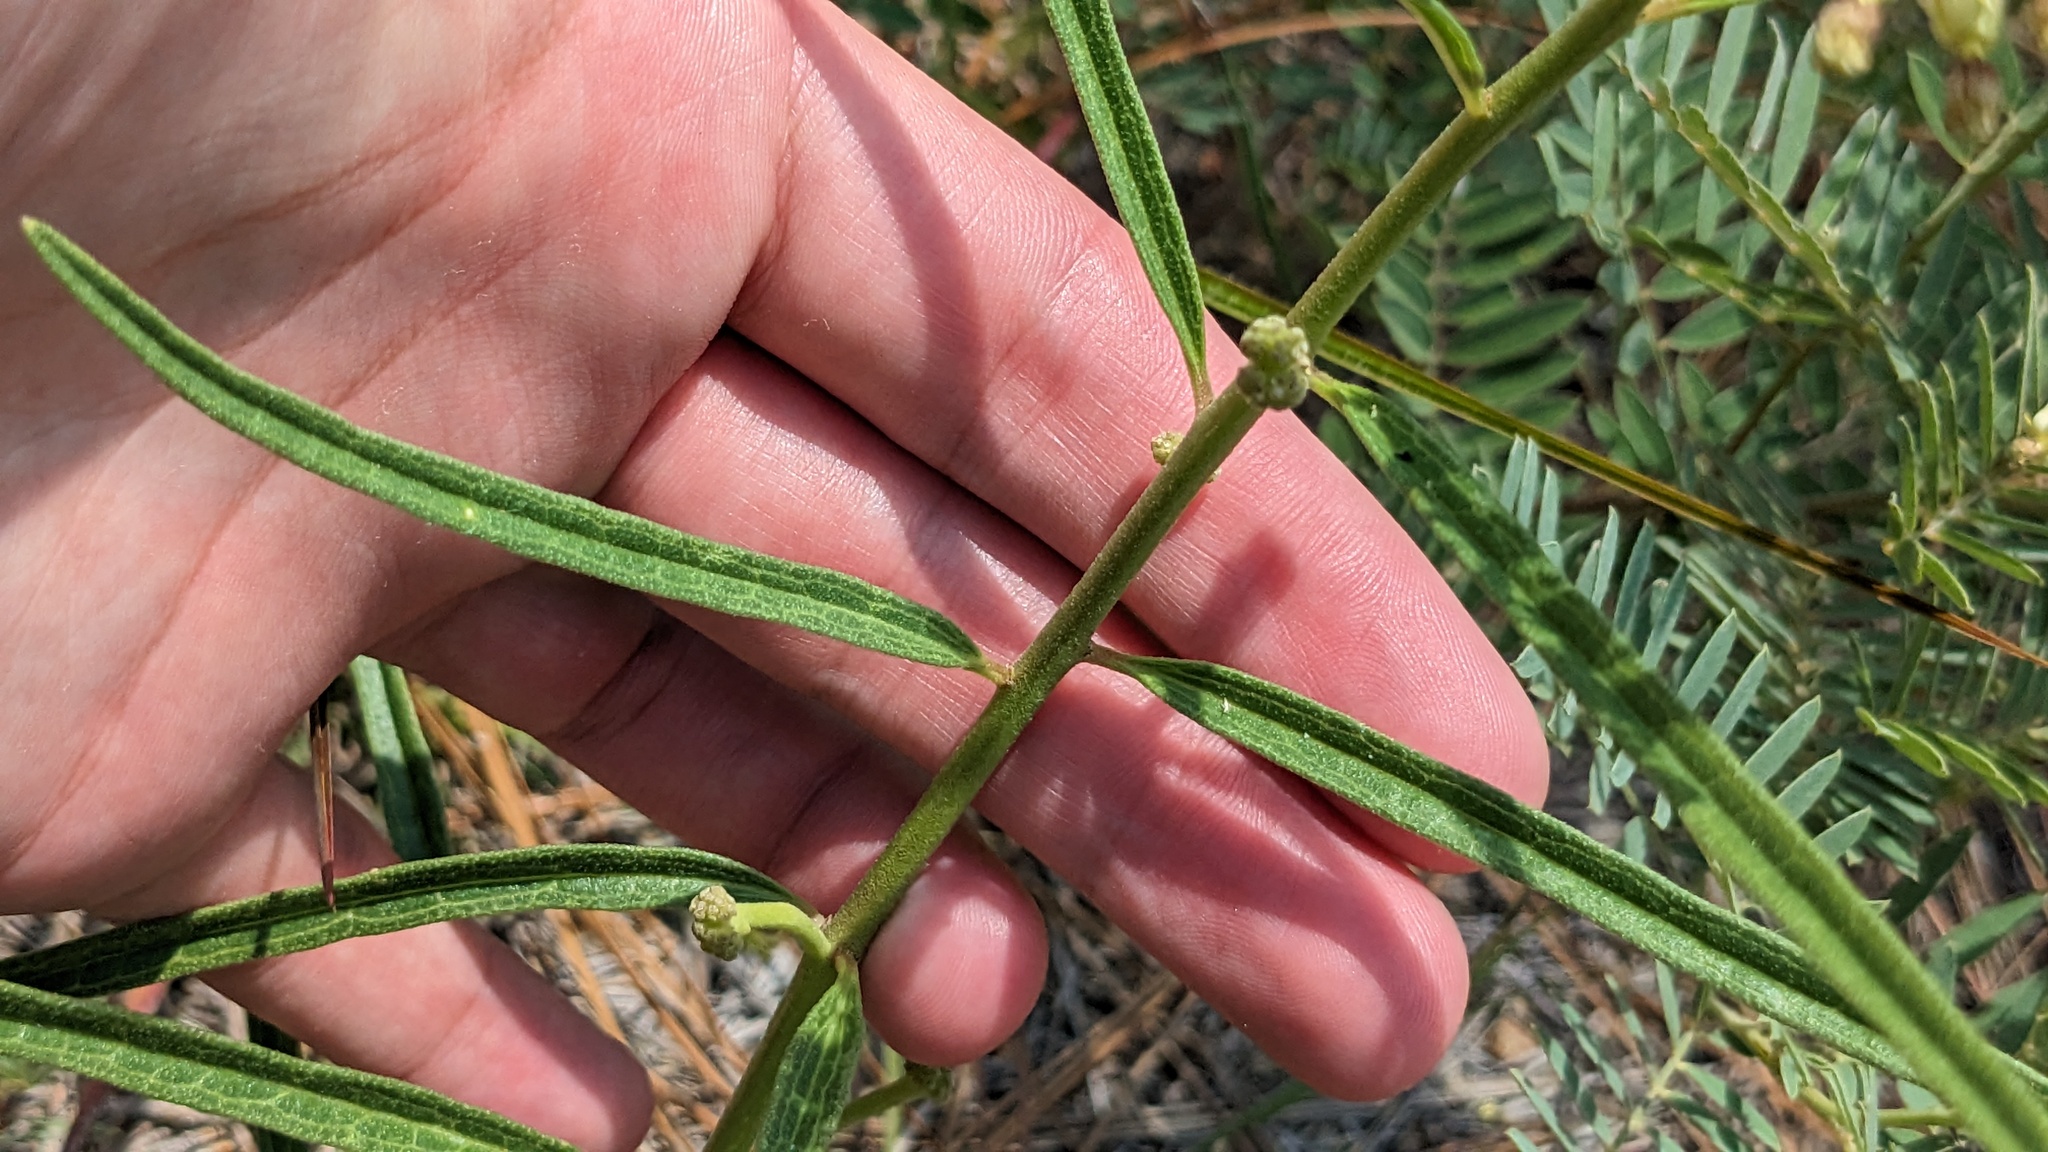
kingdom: Plantae
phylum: Tracheophyta
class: Magnoliopsida
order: Gentianales
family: Apocynaceae
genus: Asclepias
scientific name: Asclepias hirtella
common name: Prairie milkweed
